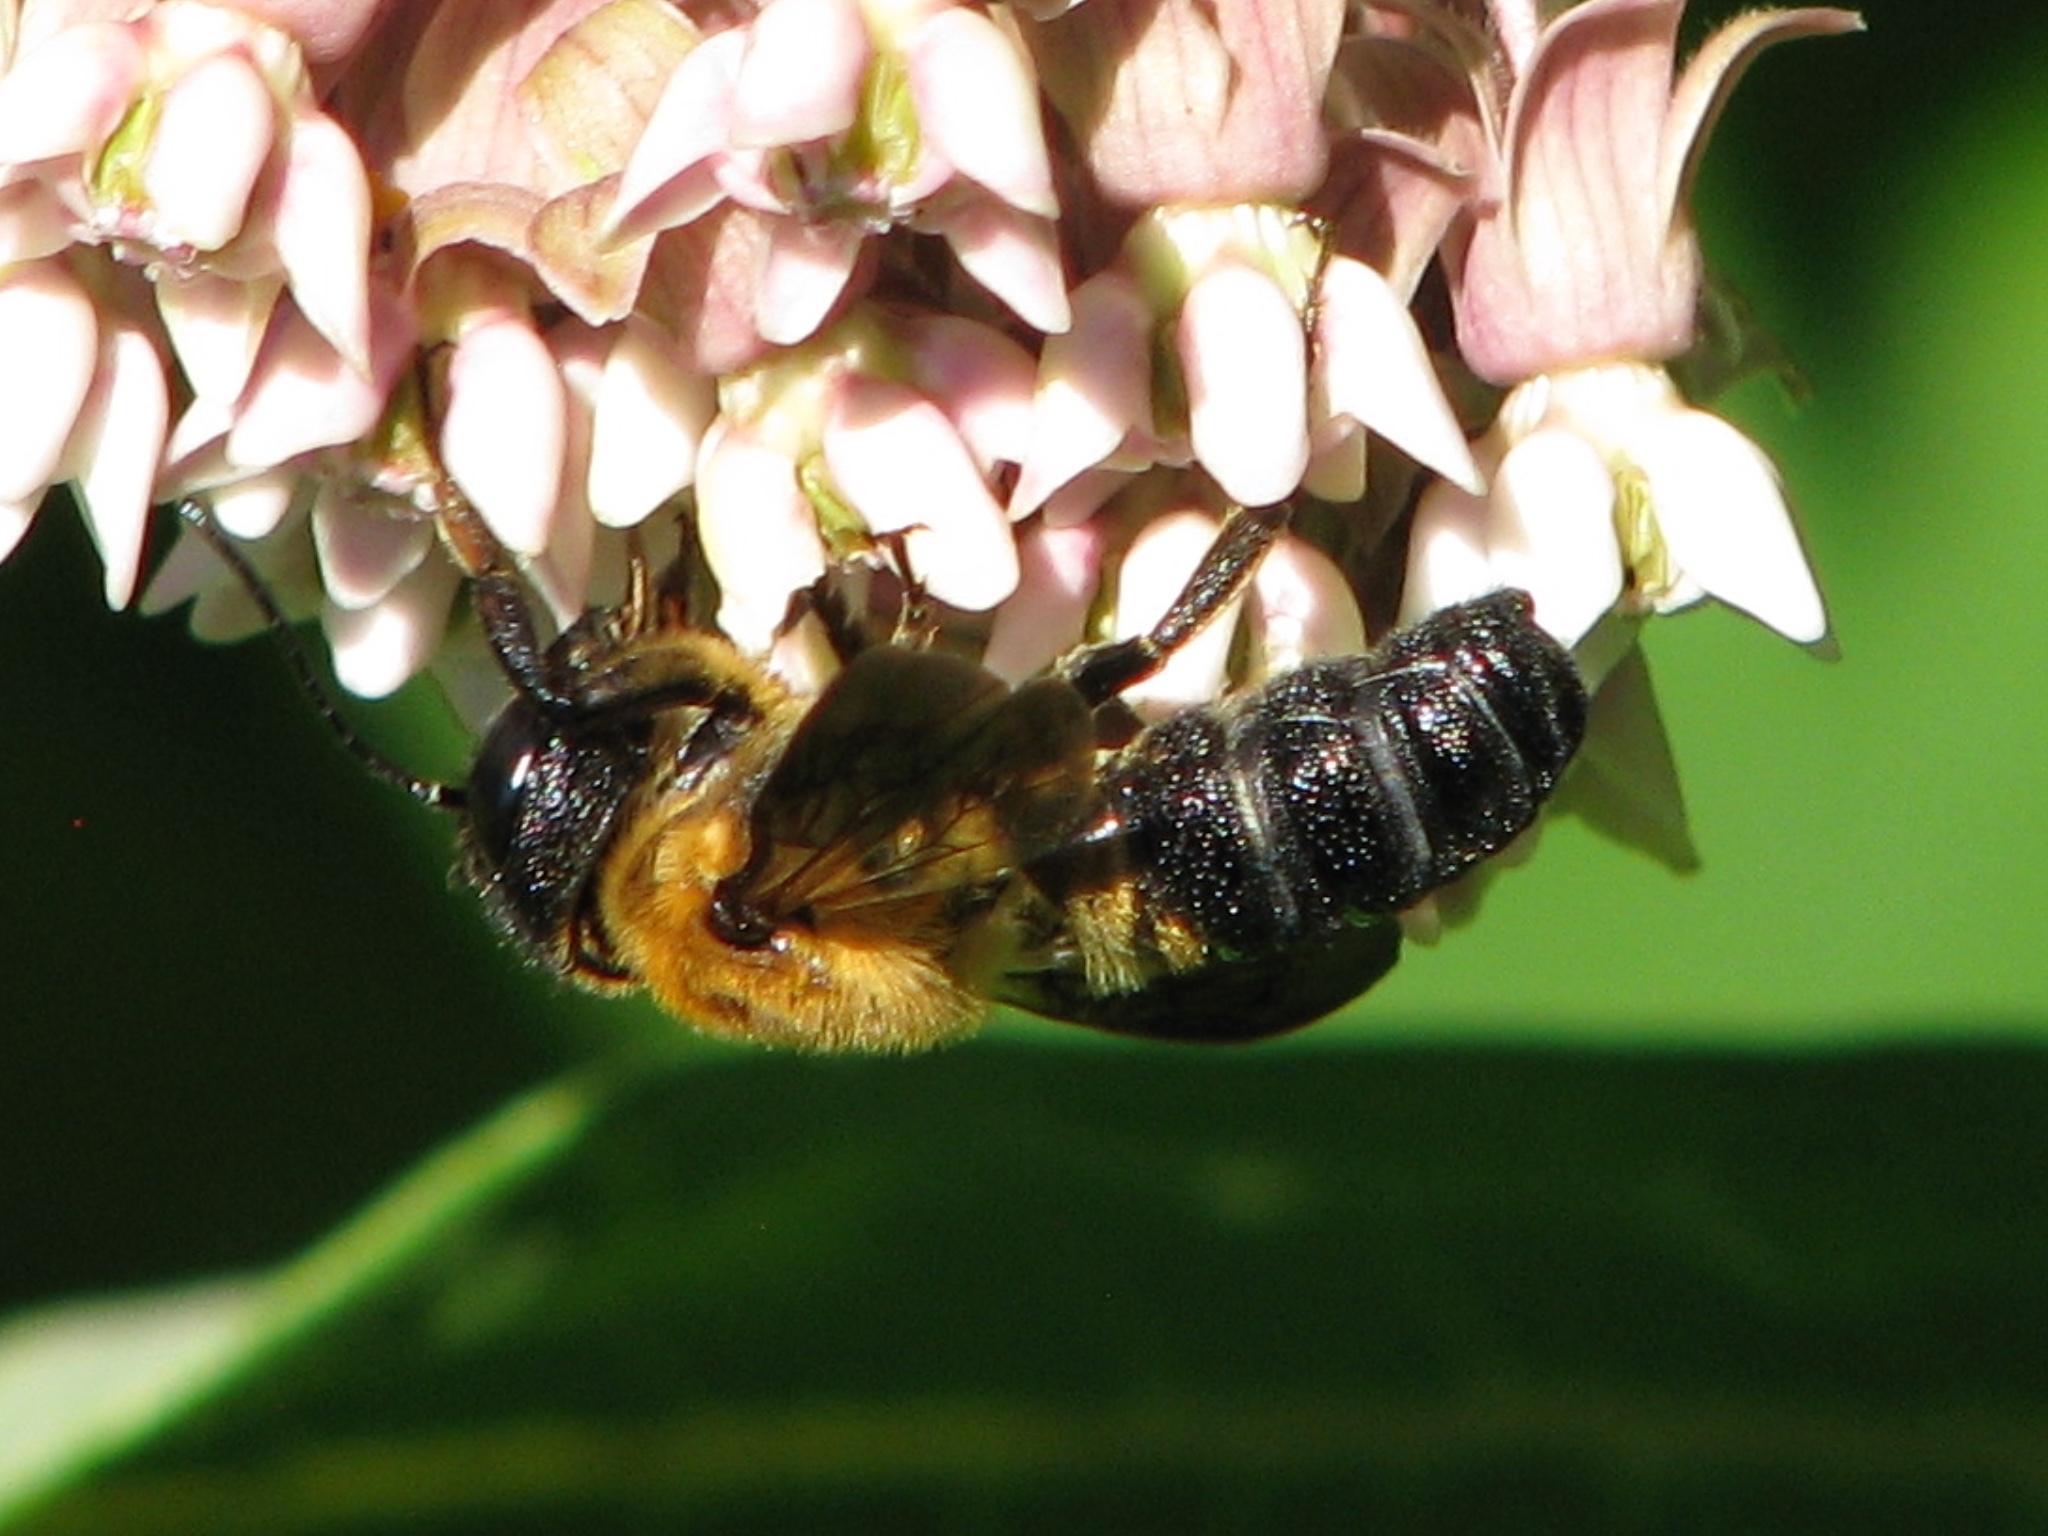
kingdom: Animalia
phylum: Arthropoda
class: Insecta
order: Hymenoptera
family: Megachilidae
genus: Megachile
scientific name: Megachile sculpturalis
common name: Sculptured resin bee
